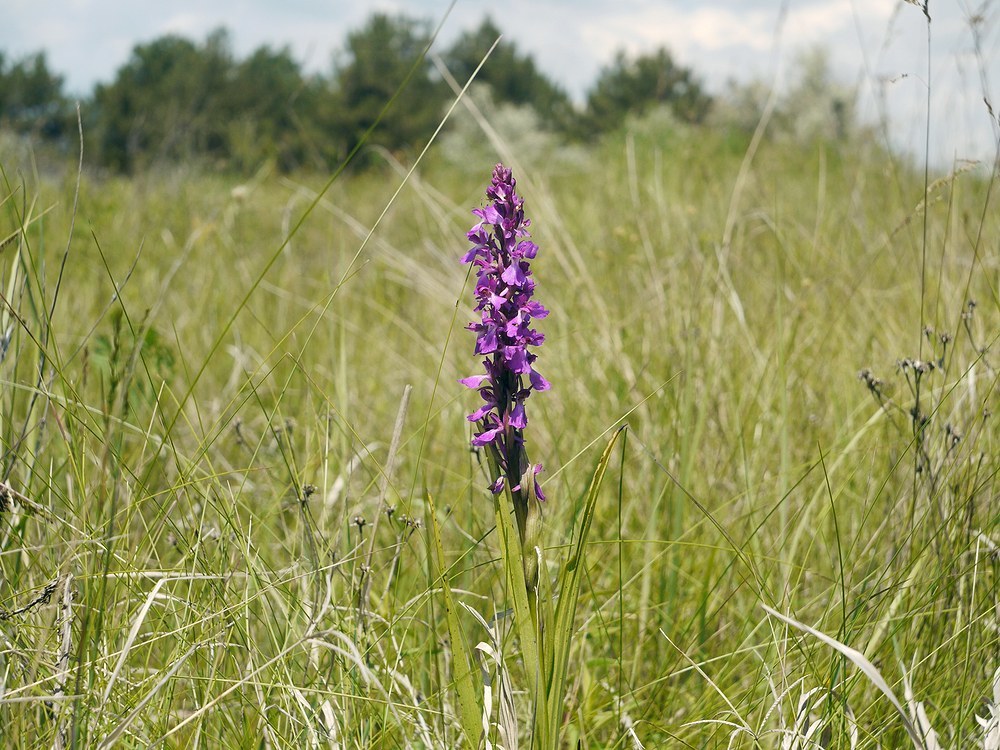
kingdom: Plantae
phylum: Tracheophyta
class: Liliopsida
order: Asparagales
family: Orchidaceae
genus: Anacamptis
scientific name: Anacamptis palustris
